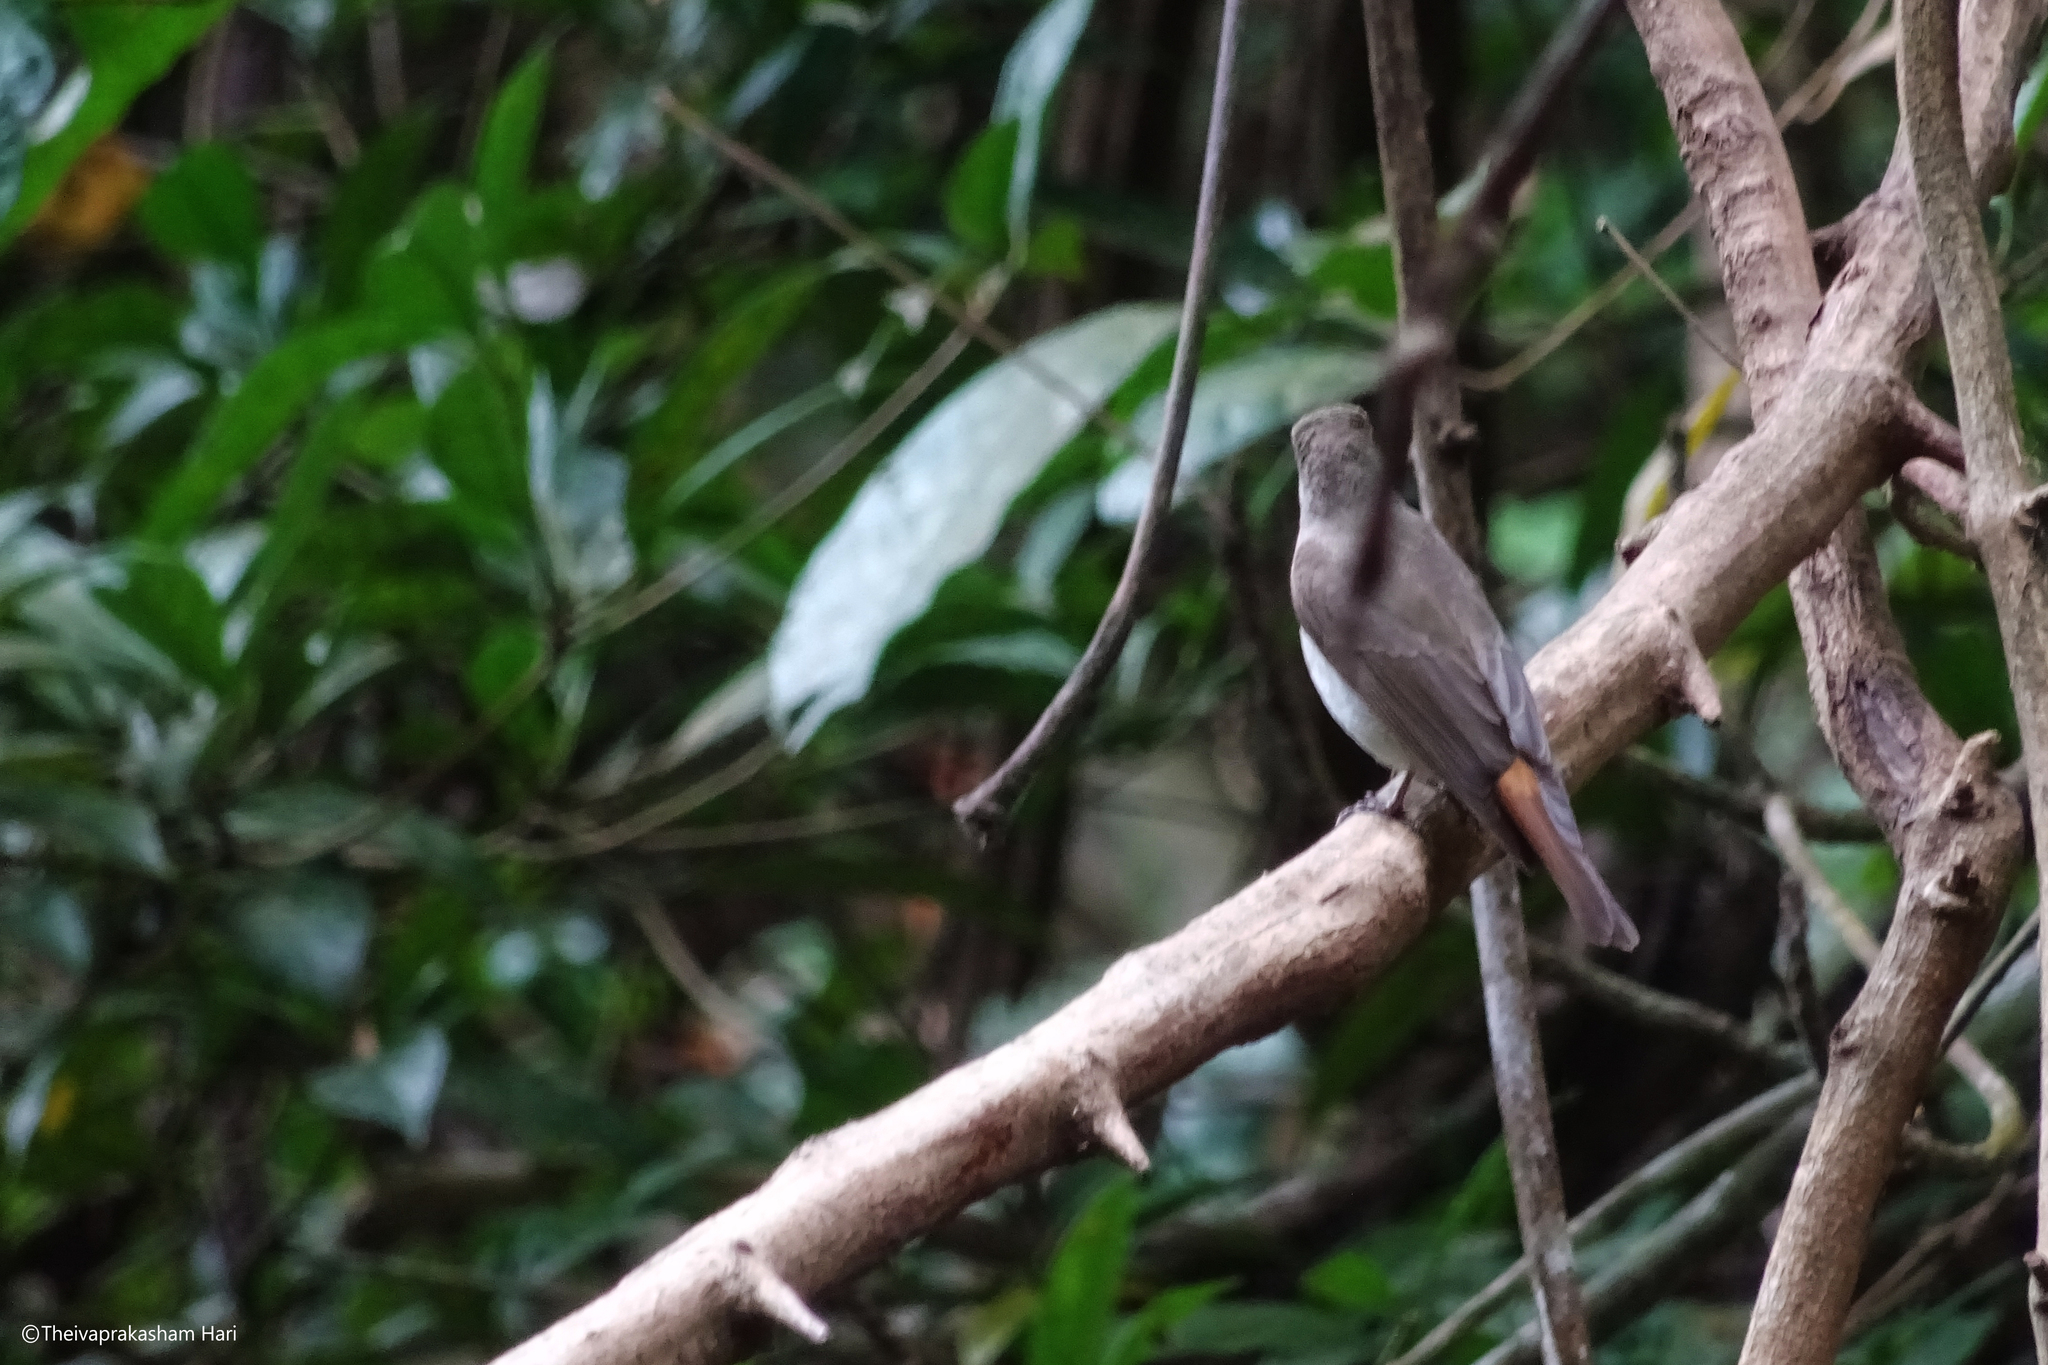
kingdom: Animalia
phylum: Chordata
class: Aves
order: Passeriformes
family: Muscicapidae
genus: Muscicapa
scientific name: Muscicapa ruficauda
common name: Rusty-tailed flycatcher
